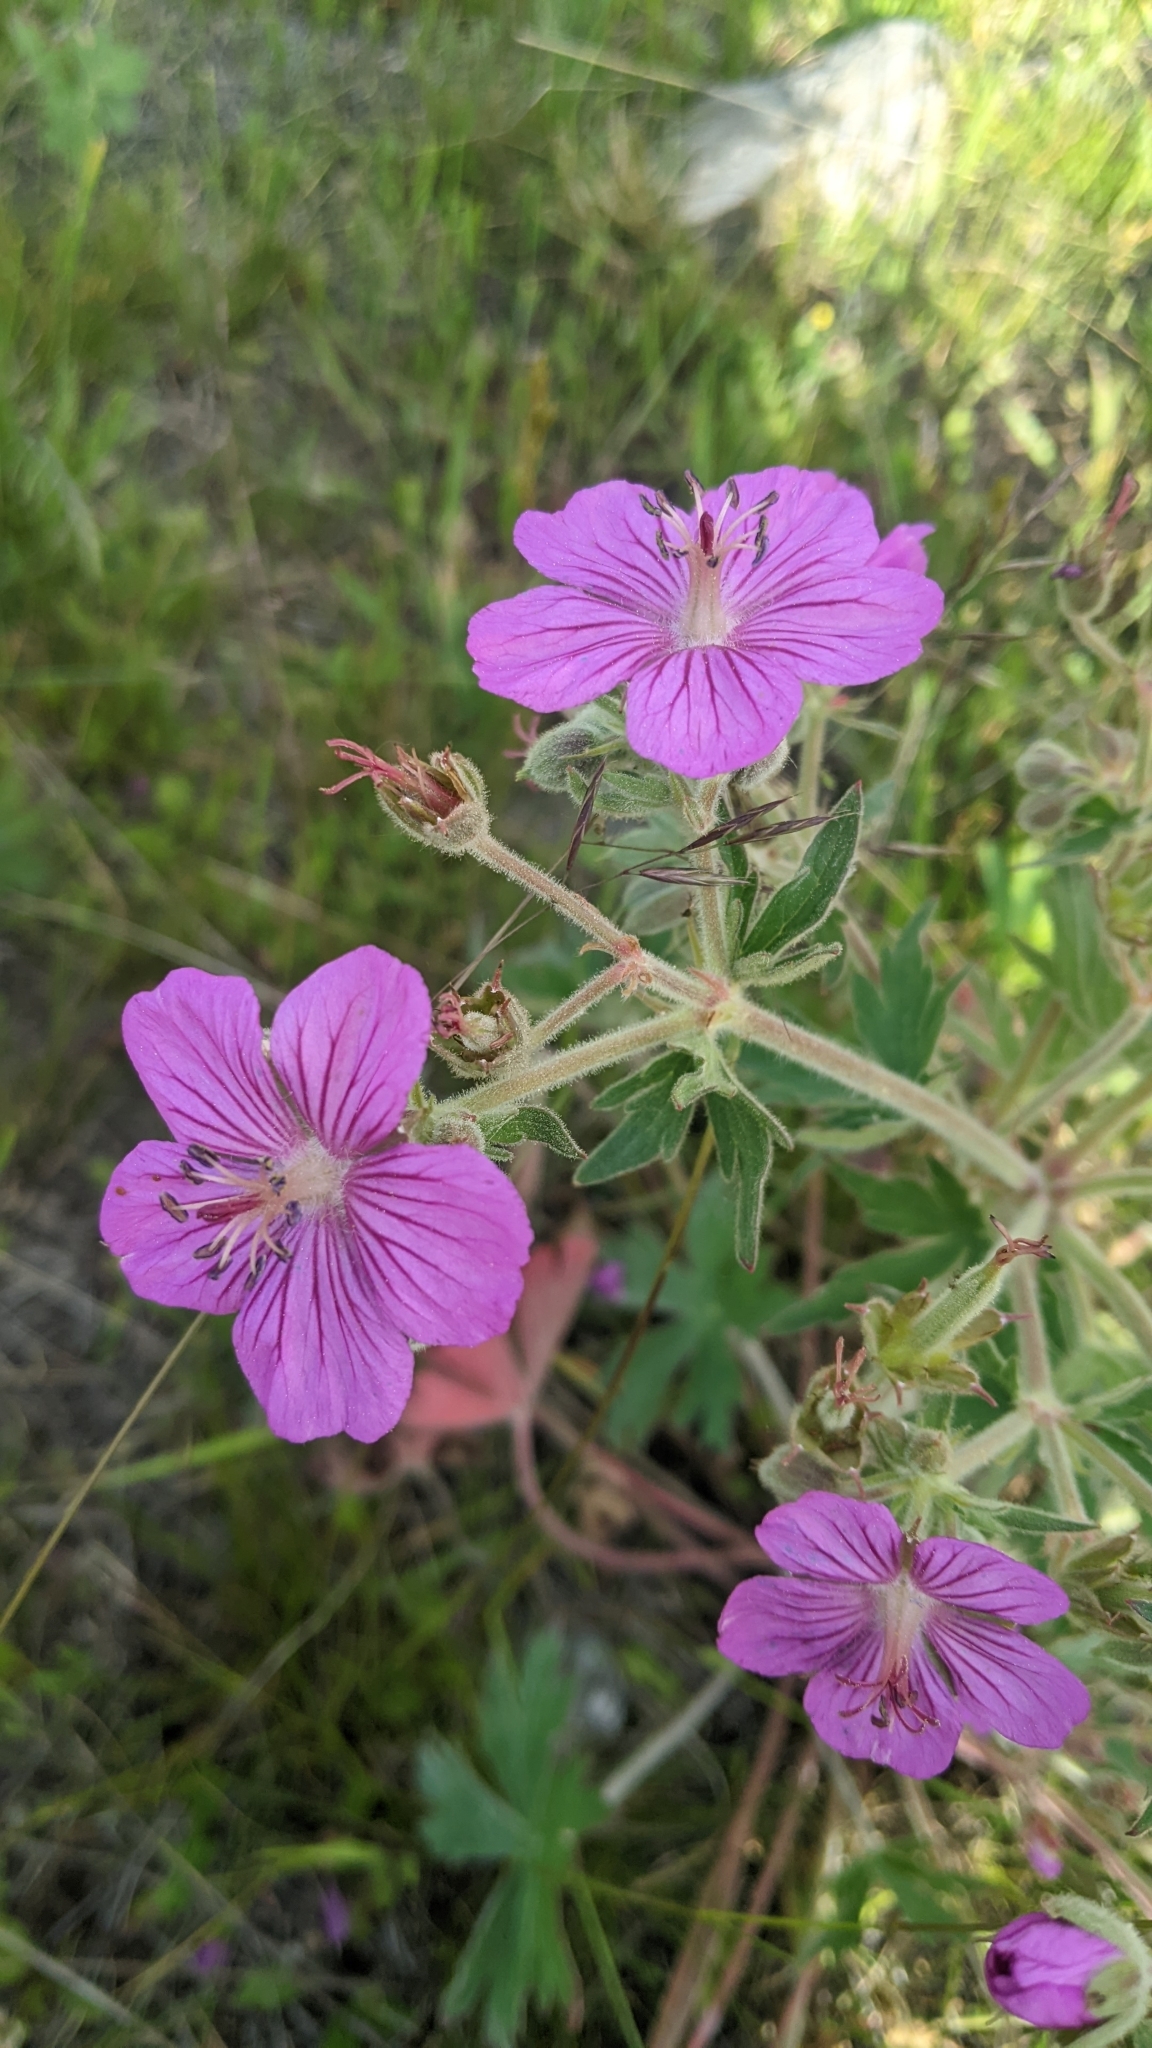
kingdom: Plantae
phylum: Tracheophyta
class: Magnoliopsida
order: Geraniales
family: Geraniaceae
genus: Geranium
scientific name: Geranium viscosissimum
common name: Purple geranium
